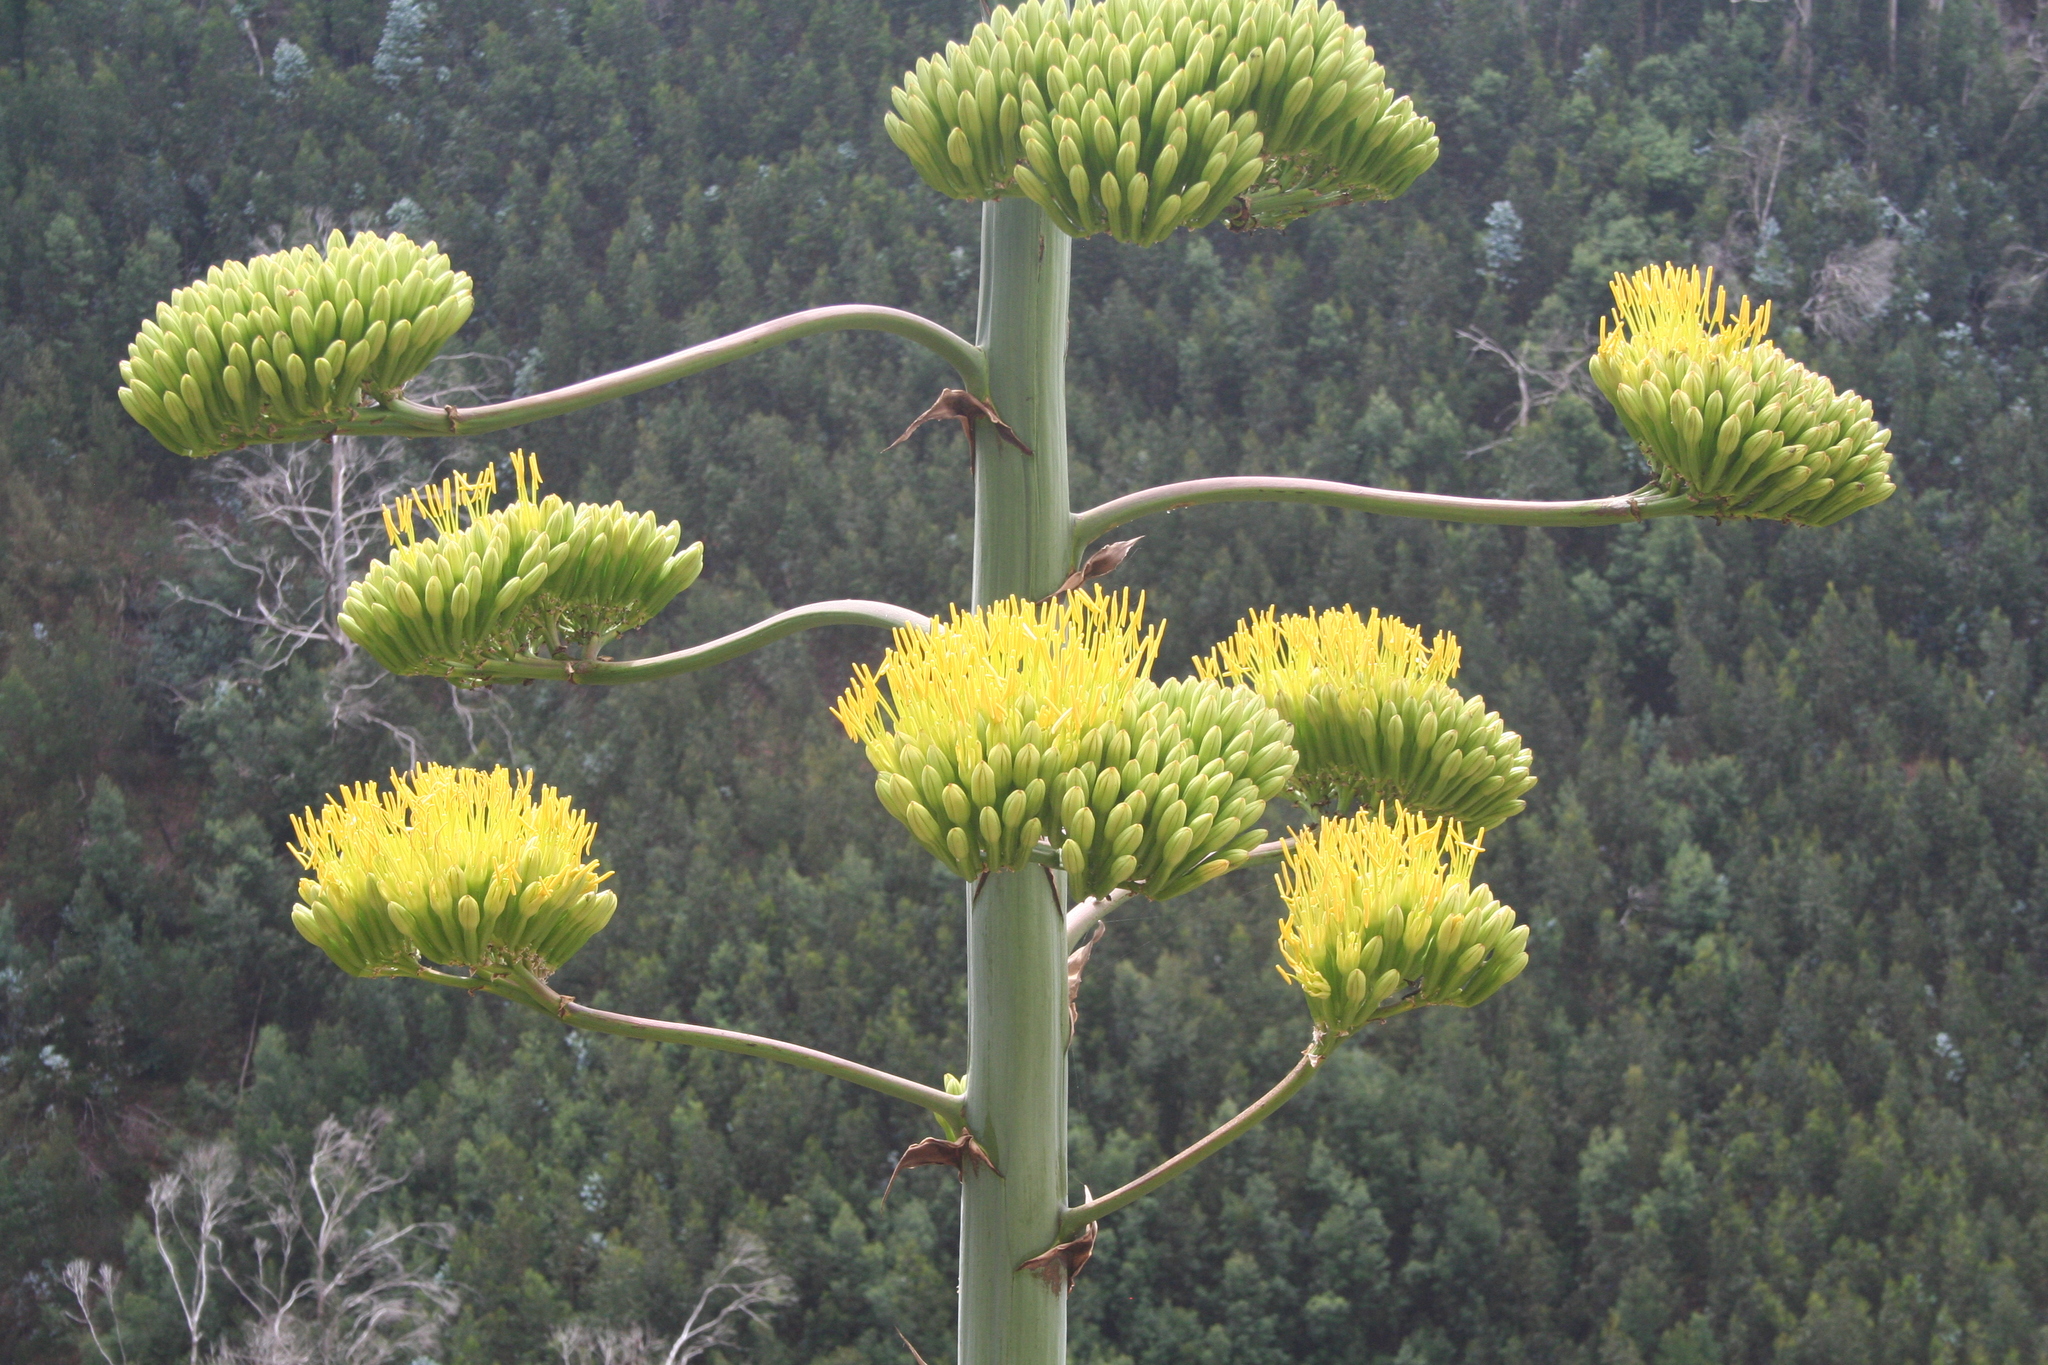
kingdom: Plantae
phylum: Tracheophyta
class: Liliopsida
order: Asparagales
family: Asparagaceae
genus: Agave
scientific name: Agave americana
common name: Centuryplant
